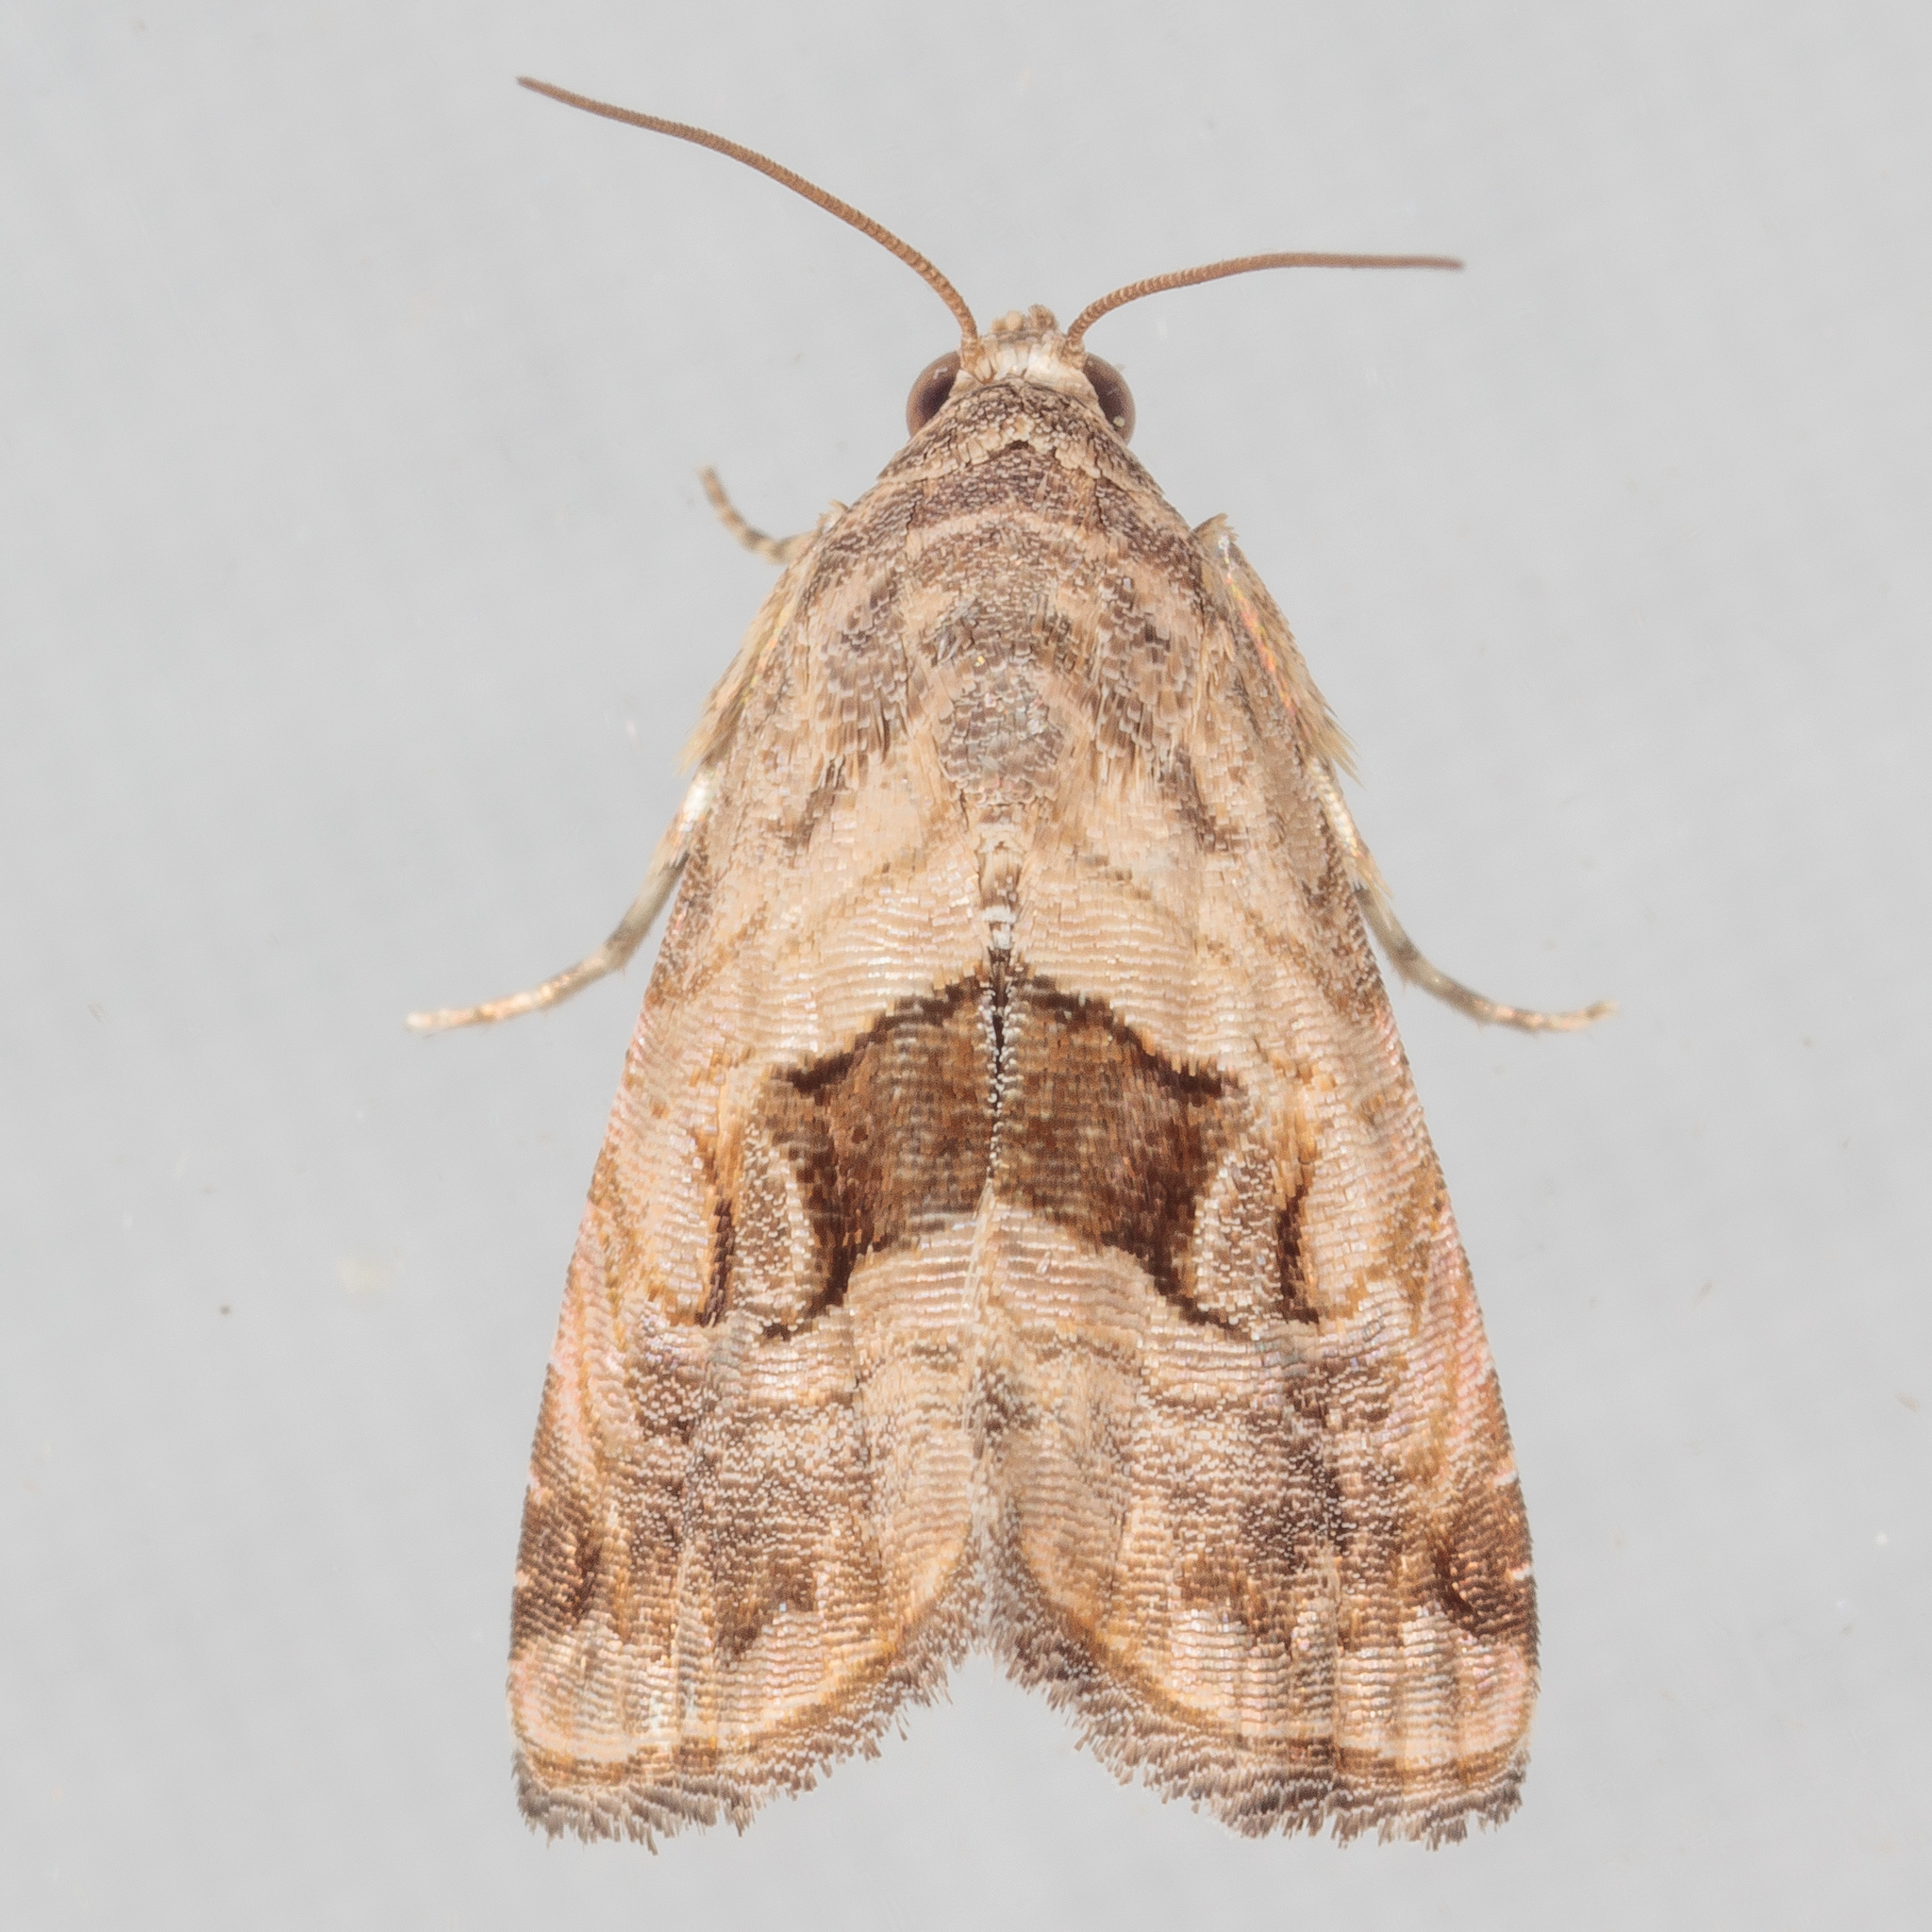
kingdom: Animalia
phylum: Arthropoda
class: Insecta
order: Lepidoptera
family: Noctuidae
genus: Tripudia
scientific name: Tripudia quadrifera
